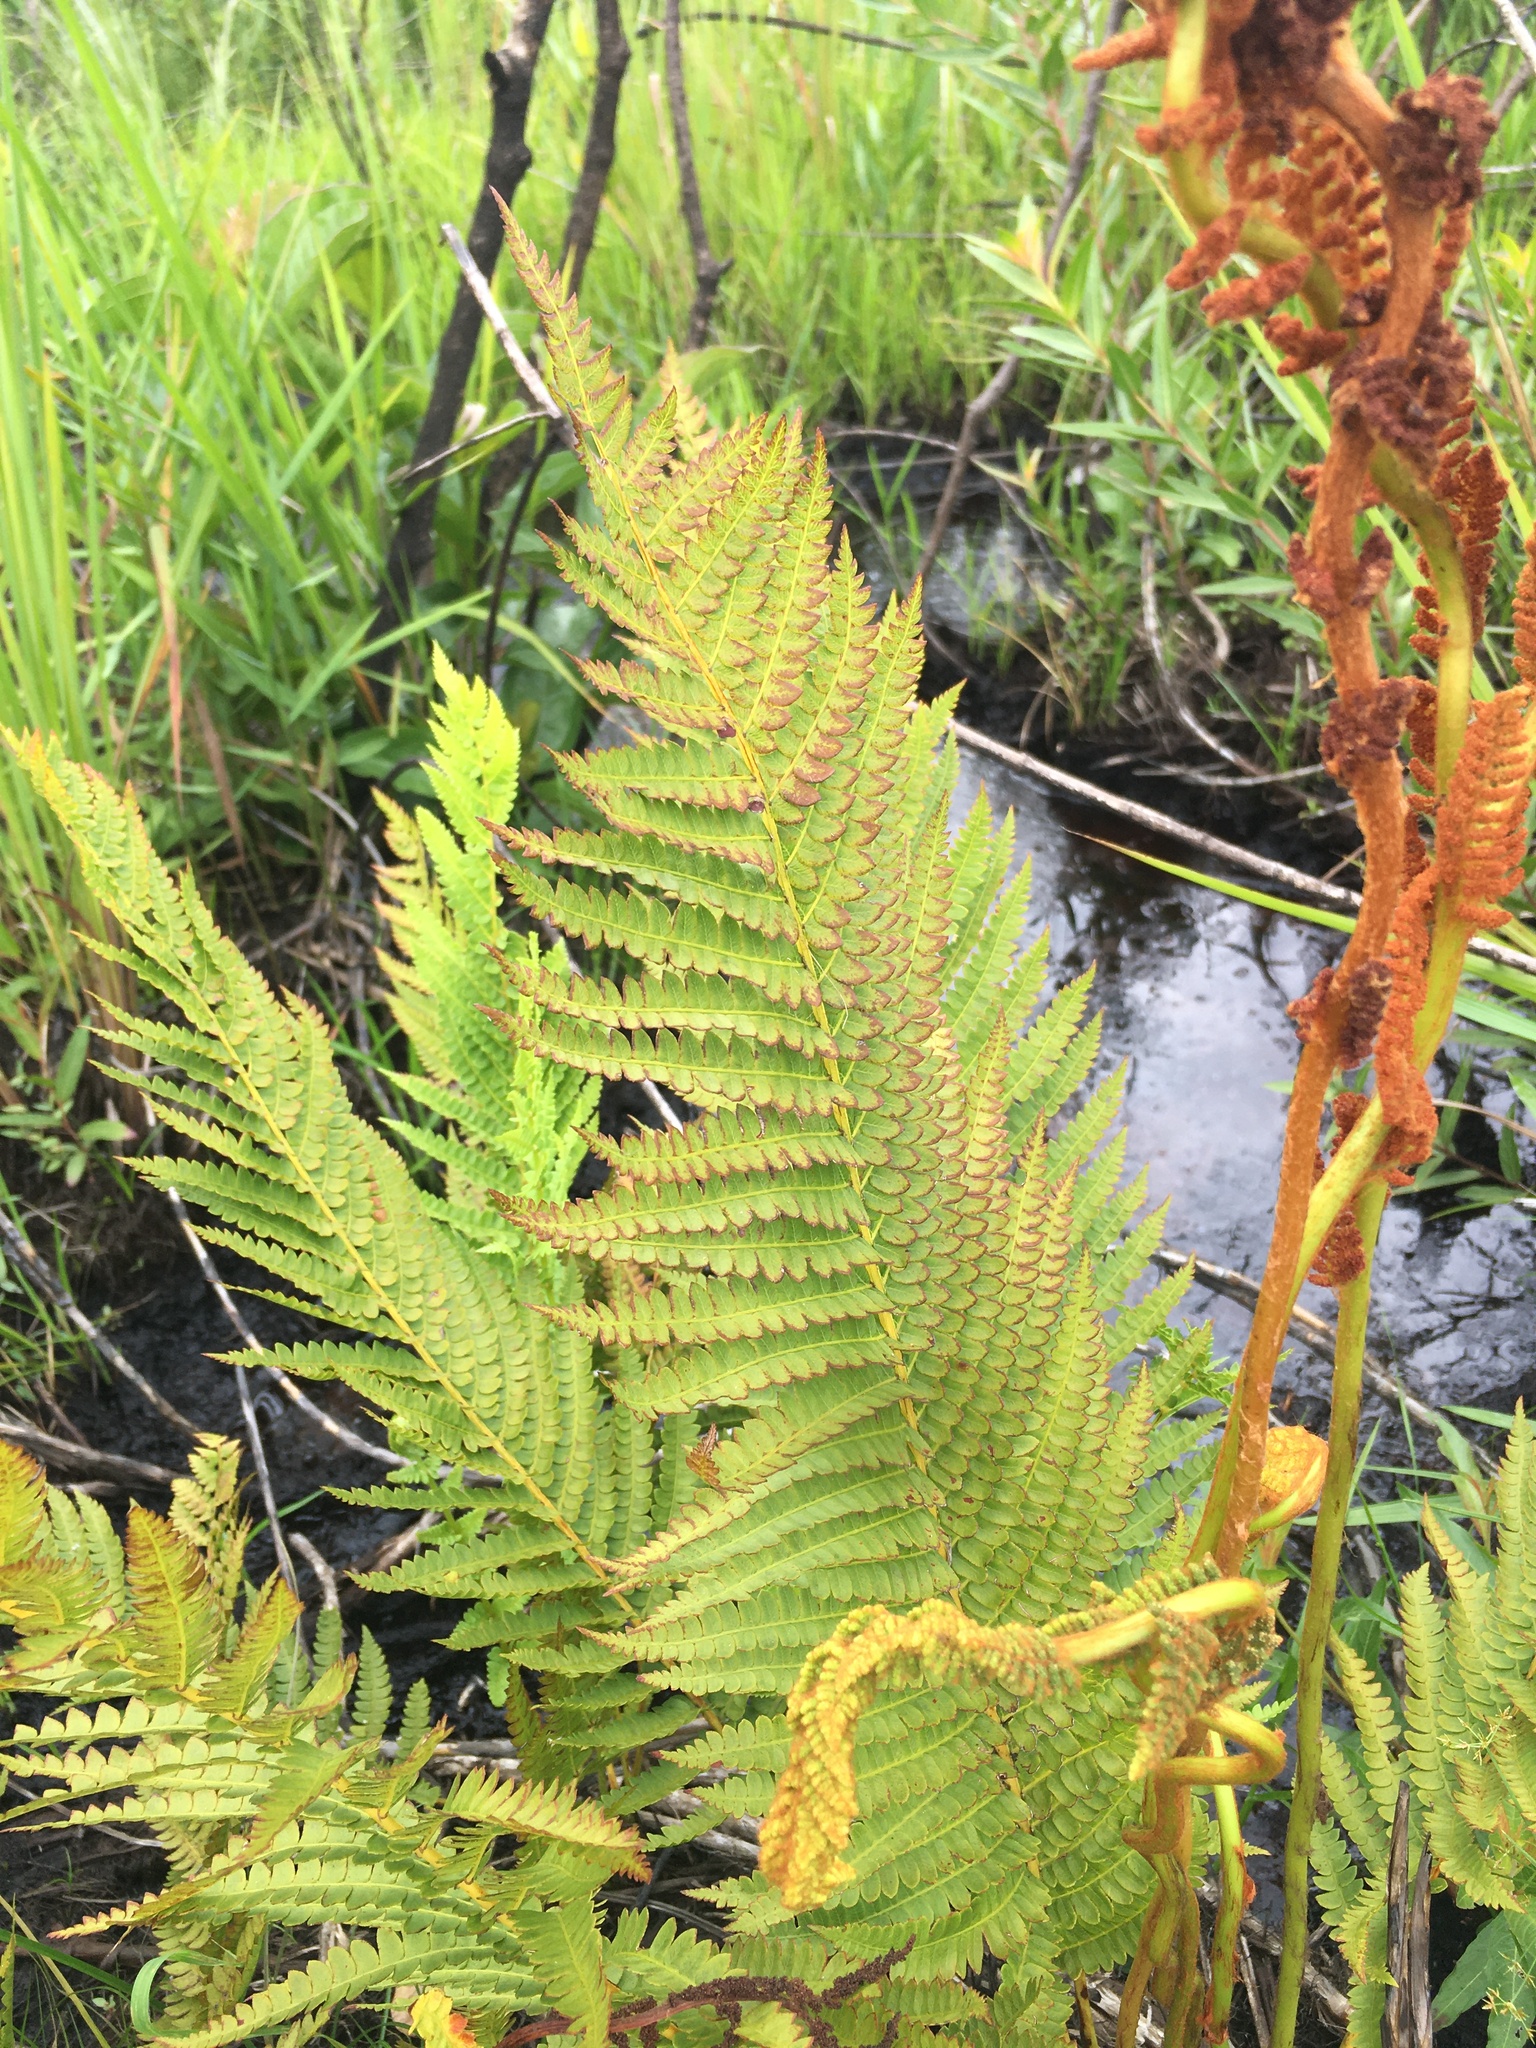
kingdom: Plantae
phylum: Tracheophyta
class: Polypodiopsida
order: Osmundales
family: Osmundaceae
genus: Osmundastrum
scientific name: Osmundastrum cinnamomeum
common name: Cinnamon fern
